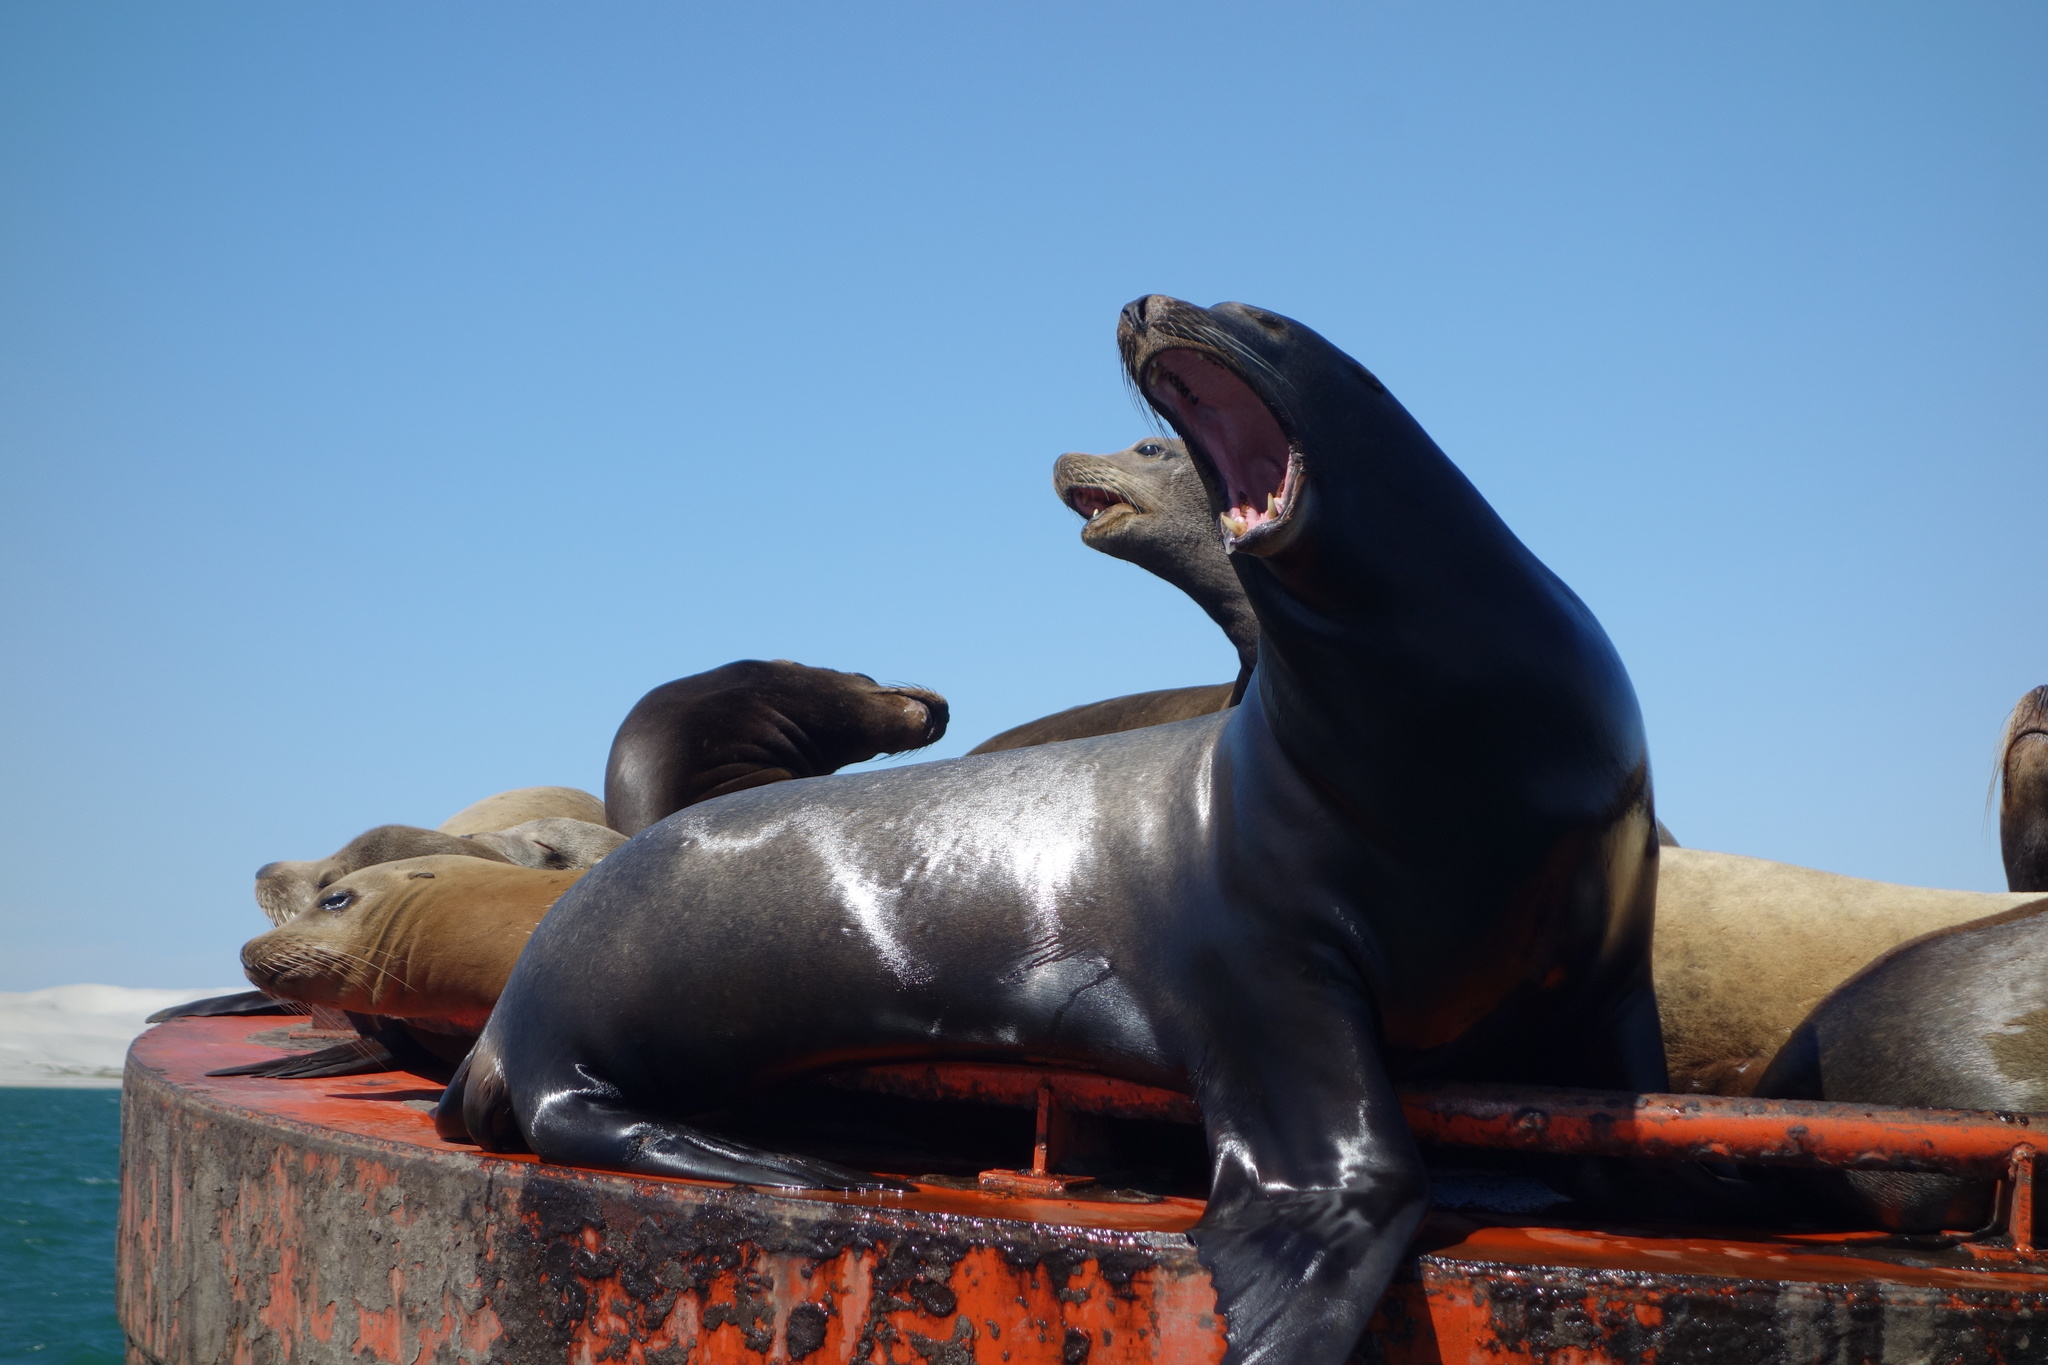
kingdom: Animalia
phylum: Chordata
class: Mammalia
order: Carnivora
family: Otariidae
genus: Zalophus
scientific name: Zalophus californianus
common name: California sea lion
